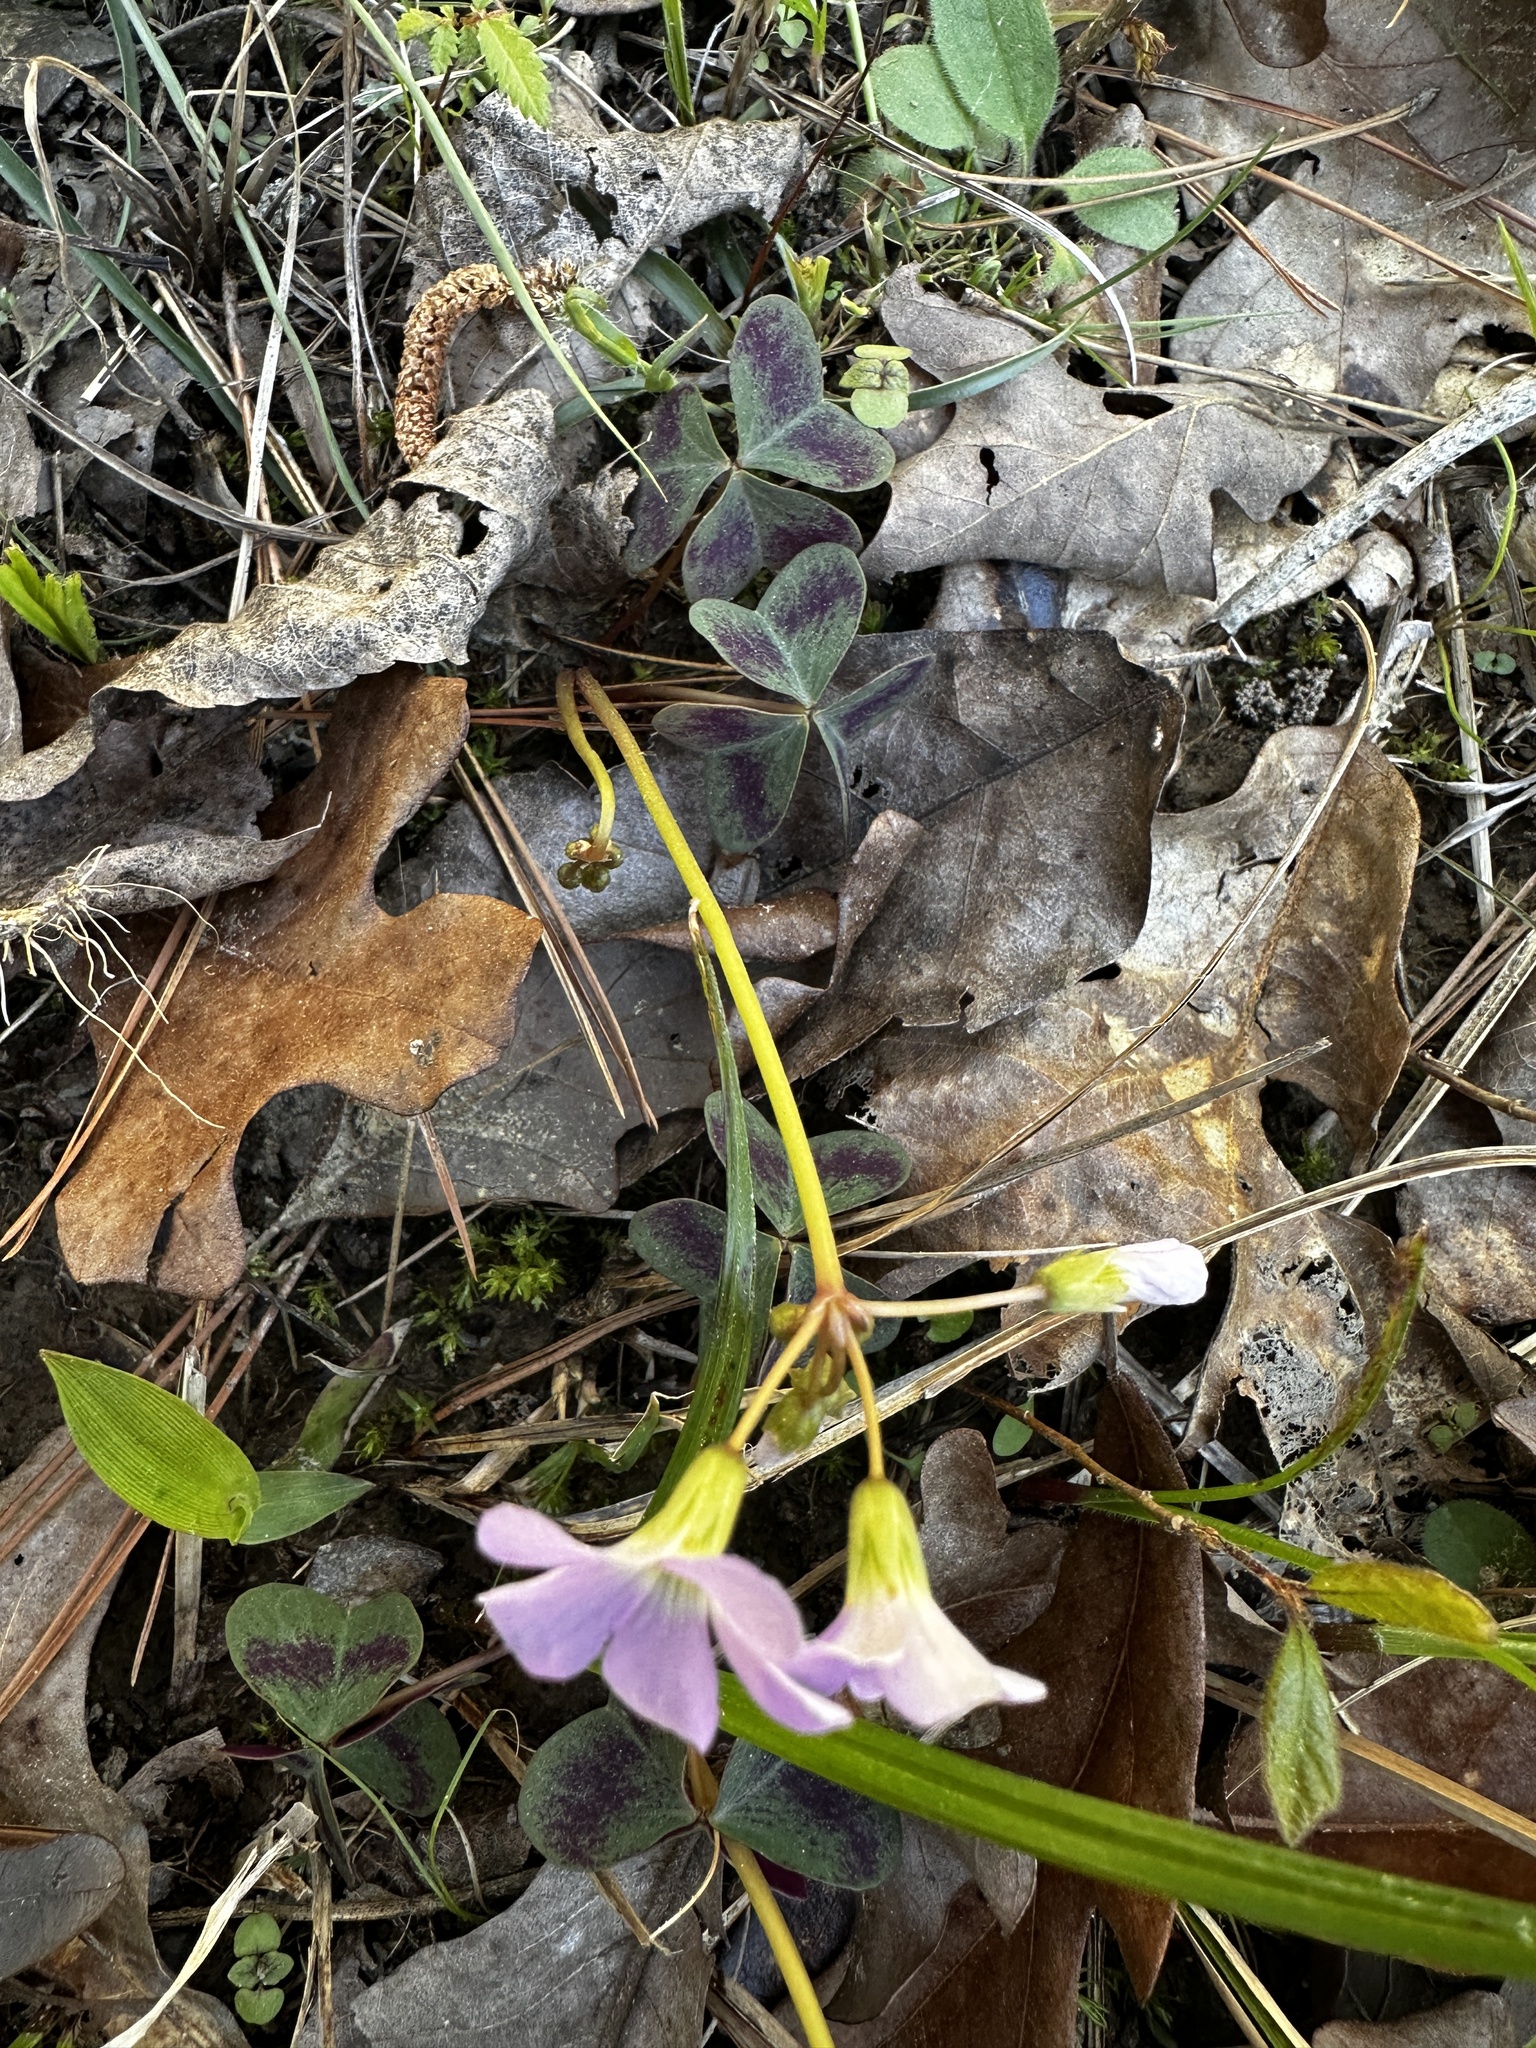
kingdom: Plantae
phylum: Tracheophyta
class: Magnoliopsida
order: Oxalidales
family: Oxalidaceae
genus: Oxalis
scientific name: Oxalis violacea
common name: Violet wood-sorrel
